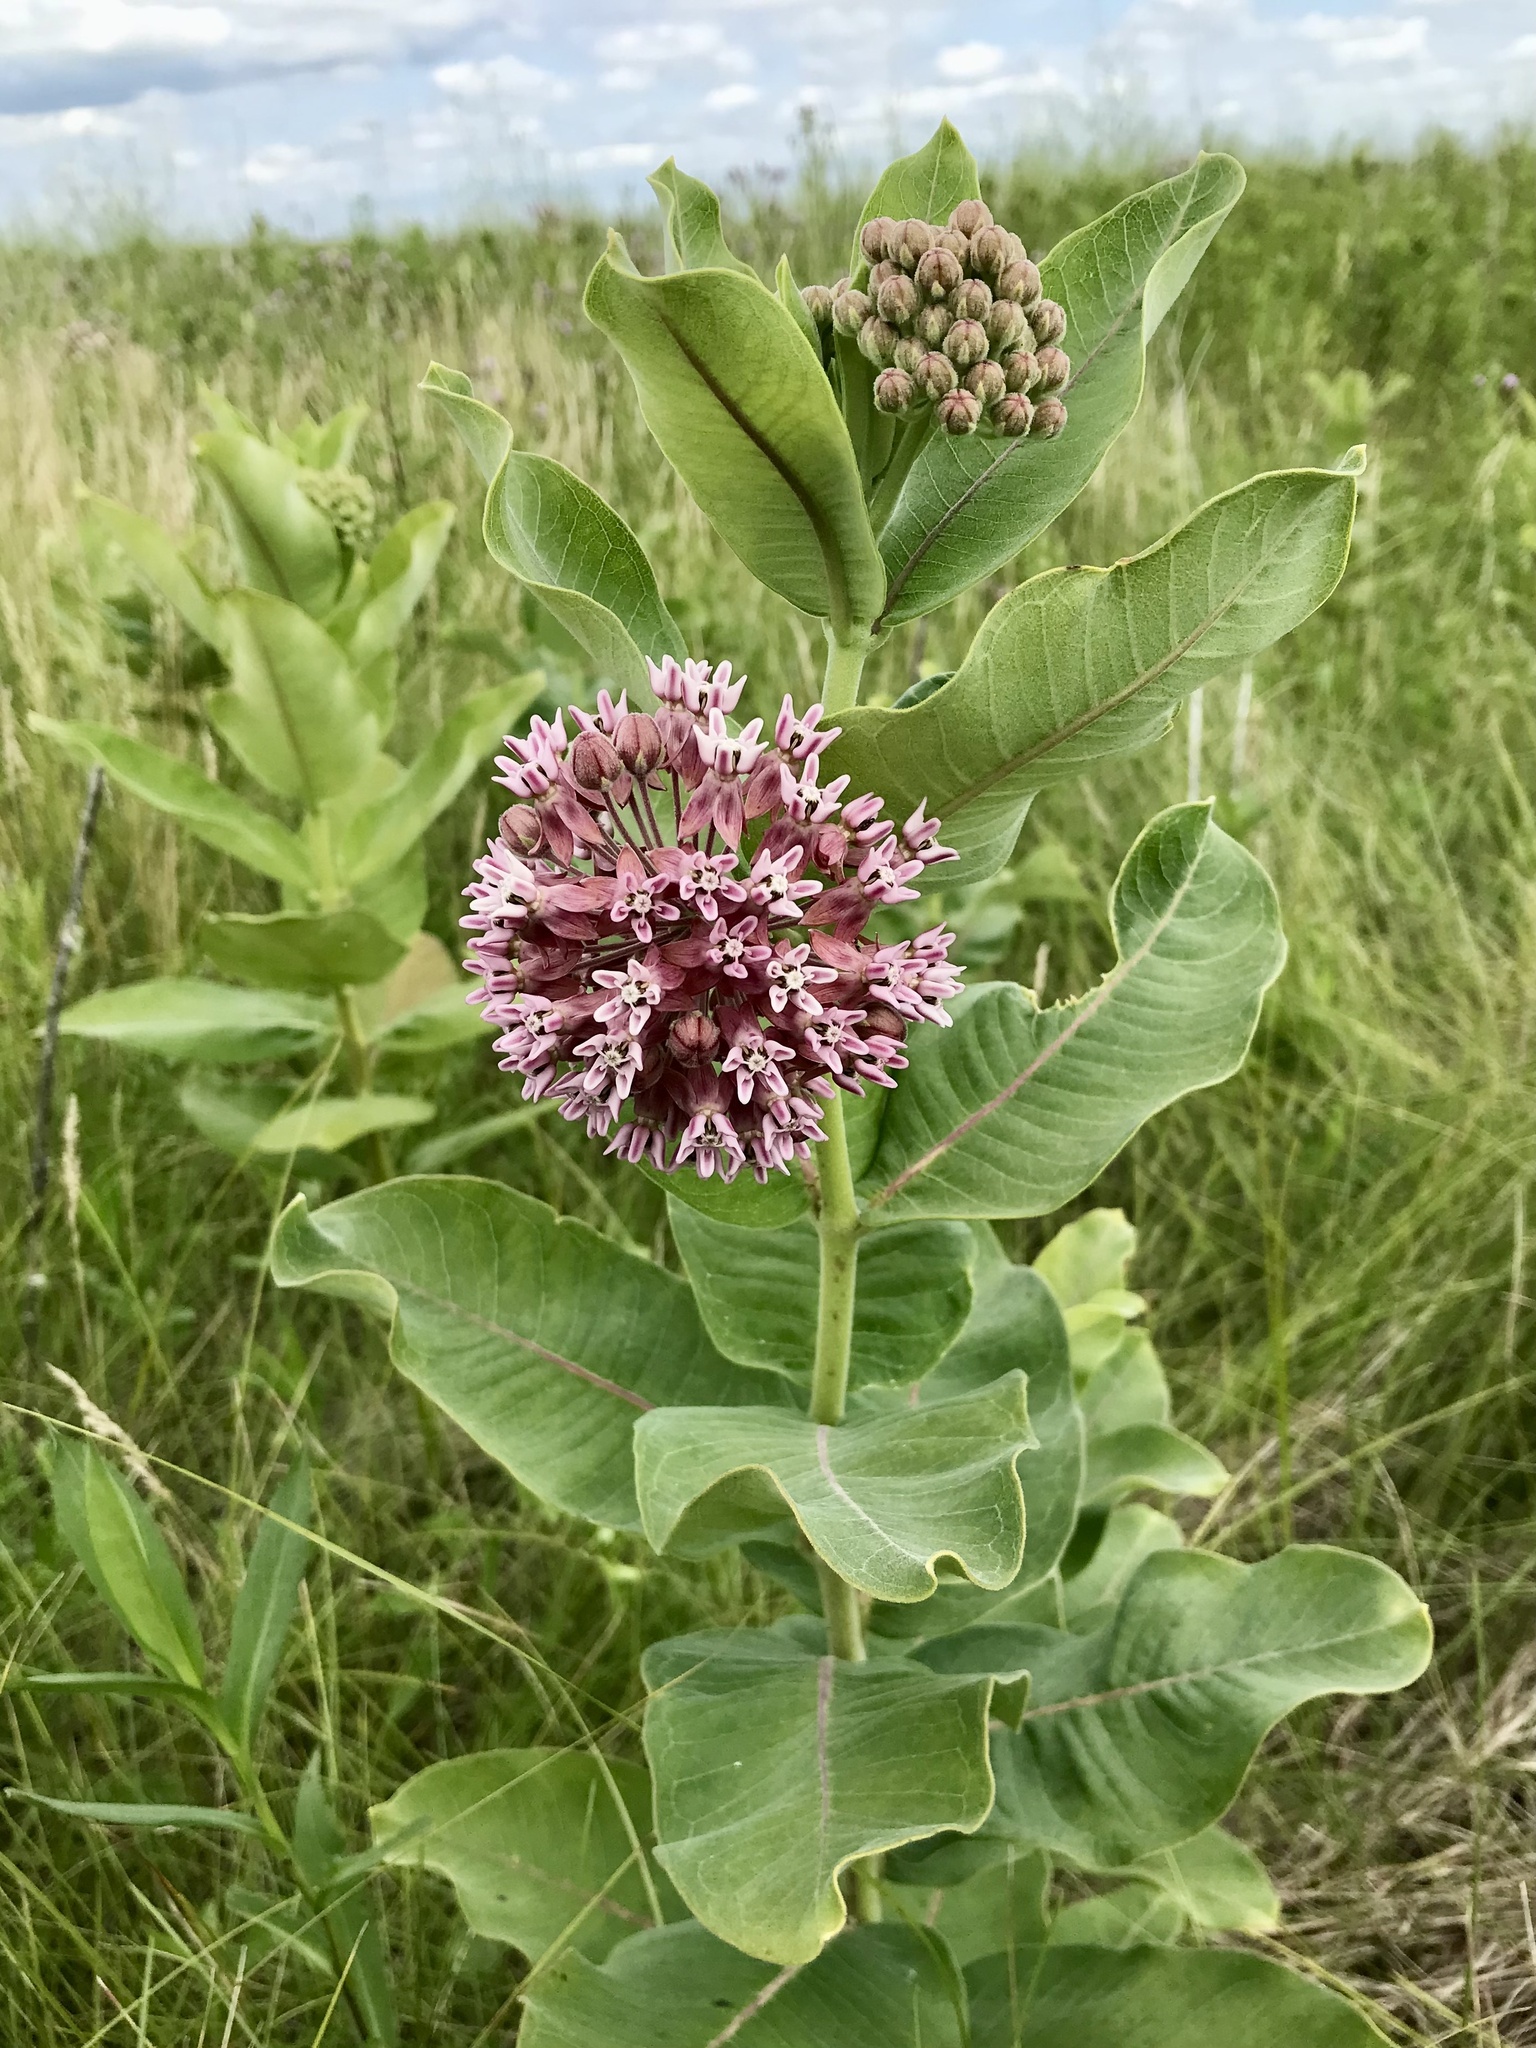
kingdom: Plantae
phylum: Tracheophyta
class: Magnoliopsida
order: Gentianales
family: Apocynaceae
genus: Asclepias
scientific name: Asclepias syriaca
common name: Common milkweed
